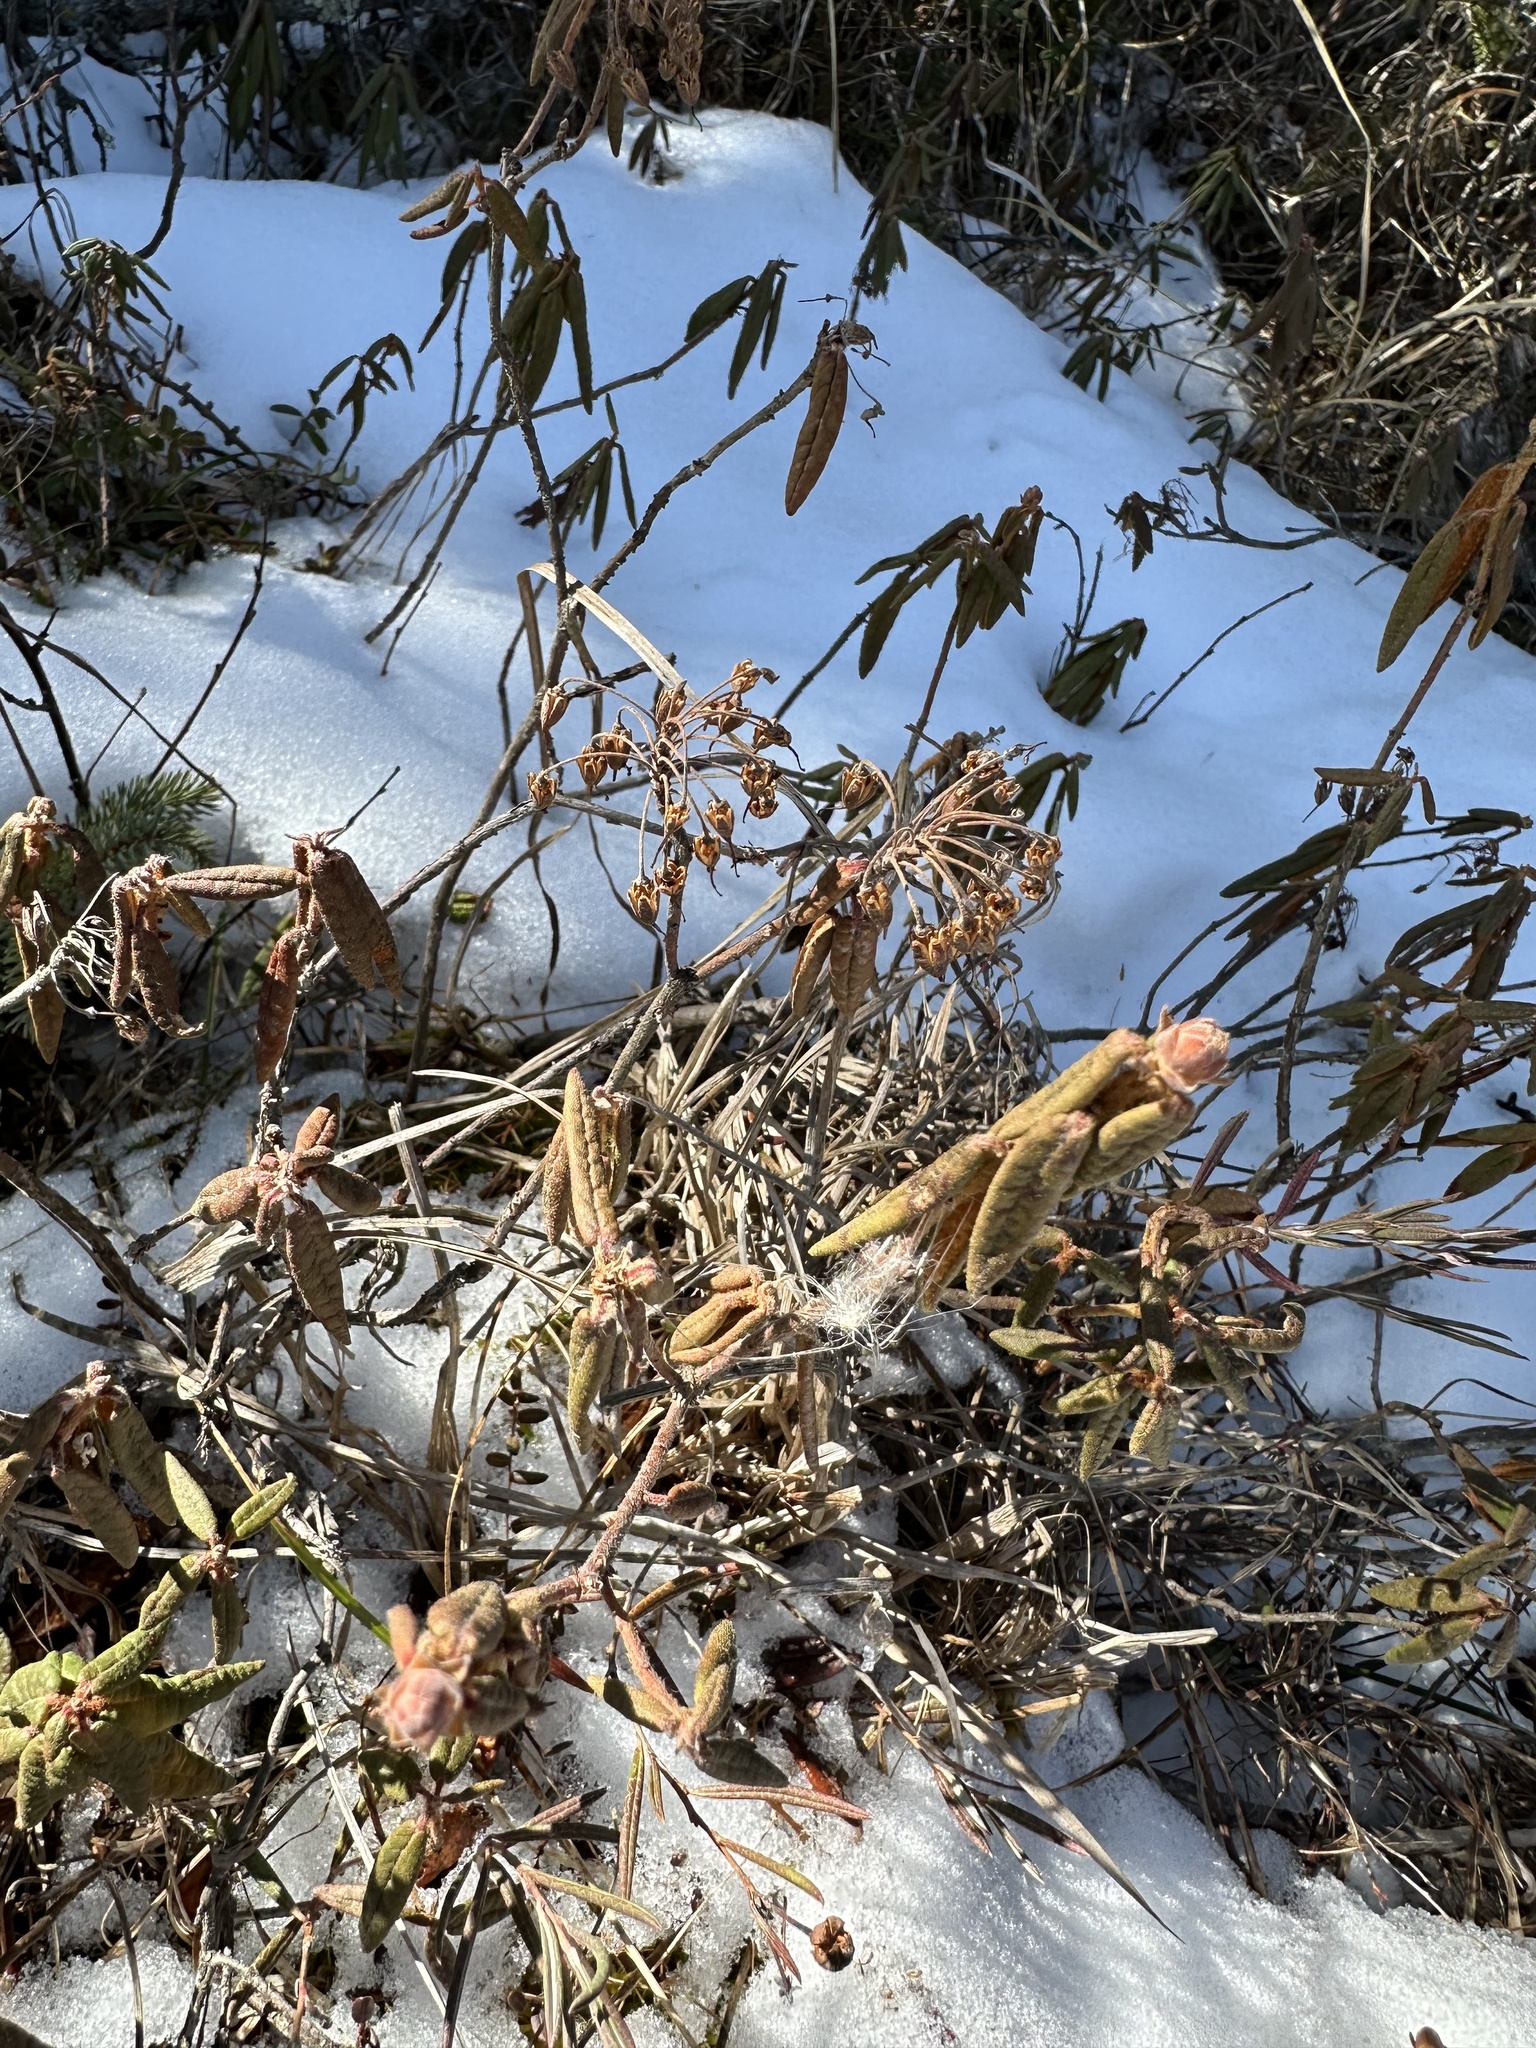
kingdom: Plantae
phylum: Tracheophyta
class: Magnoliopsida
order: Ericales
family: Ericaceae
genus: Rhododendron
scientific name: Rhododendron groenlandicum
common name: Bog labrador tea
